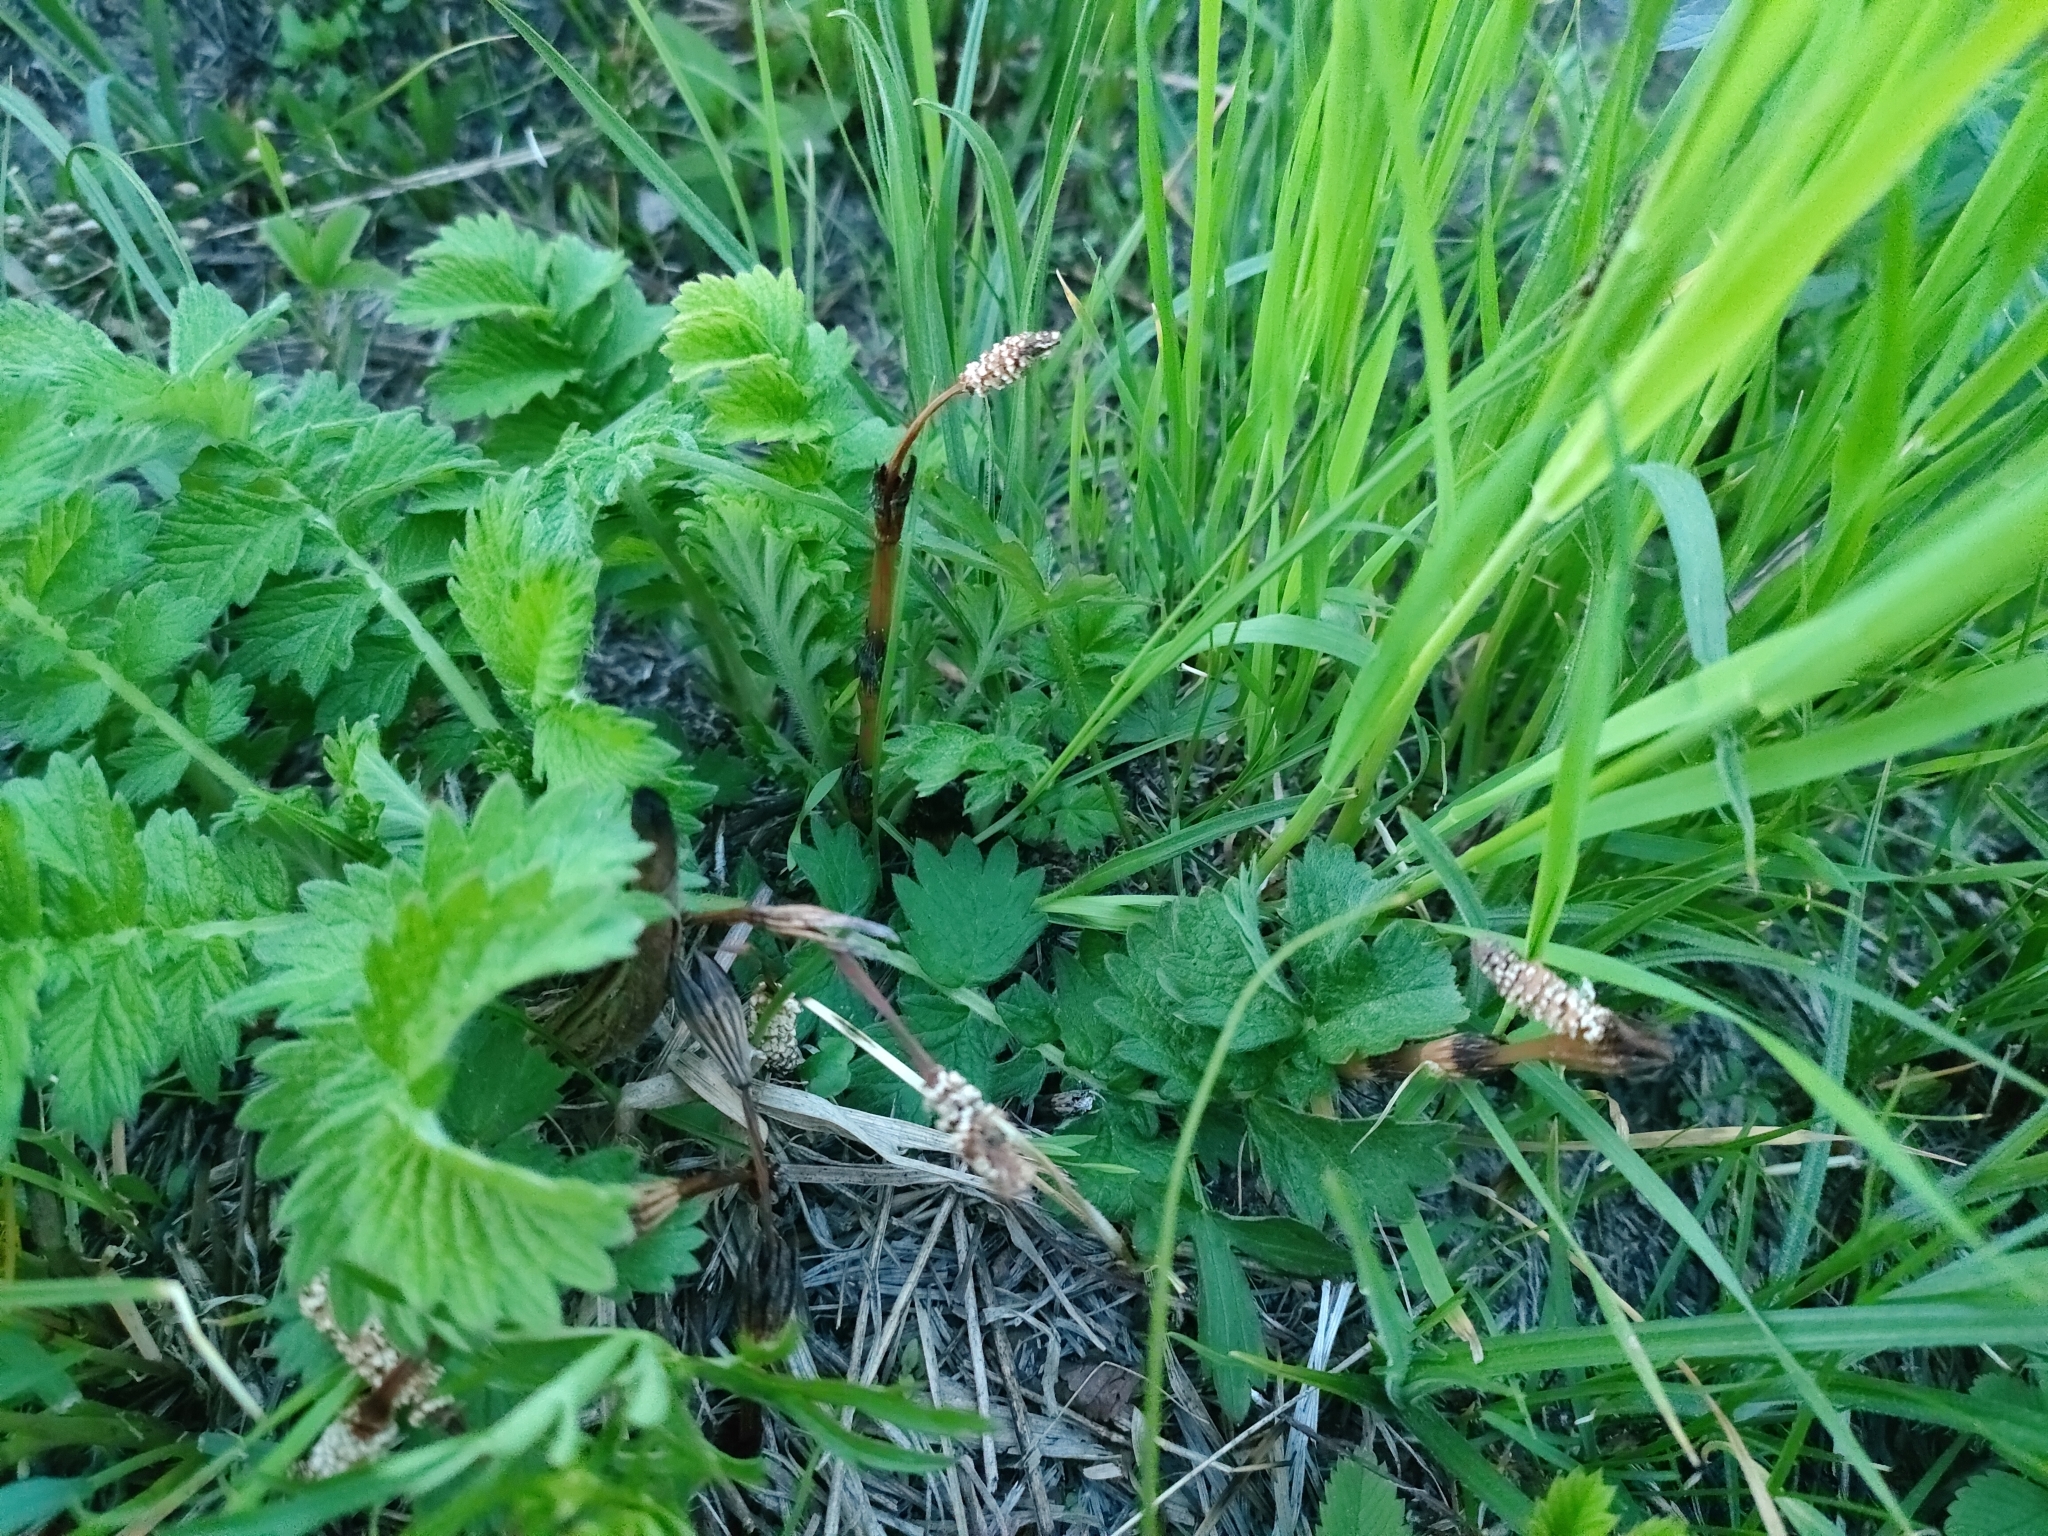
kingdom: Plantae
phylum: Tracheophyta
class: Polypodiopsida
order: Equisetales
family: Equisetaceae
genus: Equisetum
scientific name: Equisetum arvense
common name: Field horsetail
